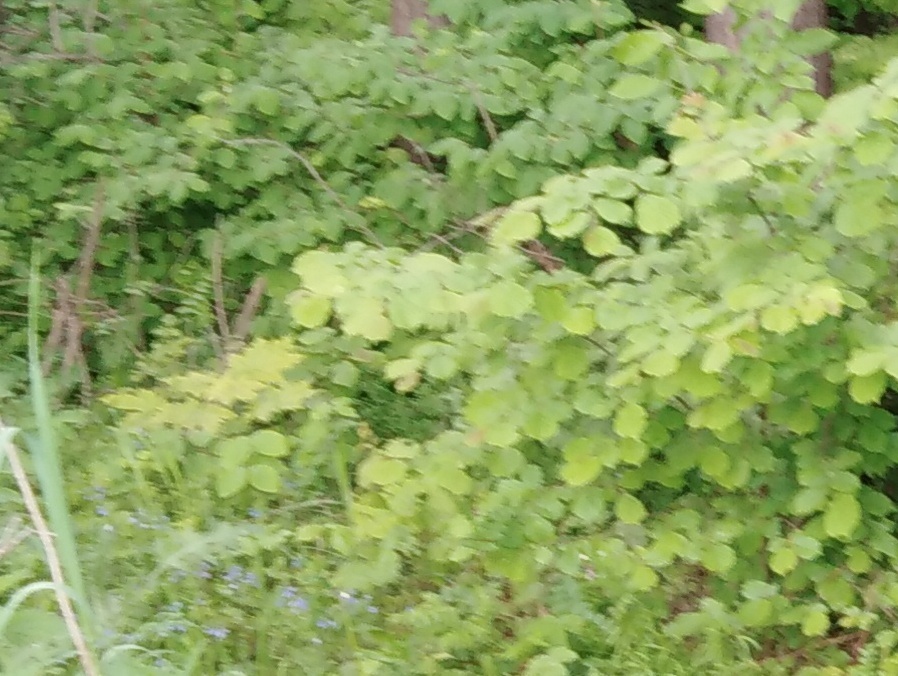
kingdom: Plantae
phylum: Tracheophyta
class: Magnoliopsida
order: Fagales
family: Betulaceae
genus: Corylus
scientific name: Corylus avellana
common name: European hazel
